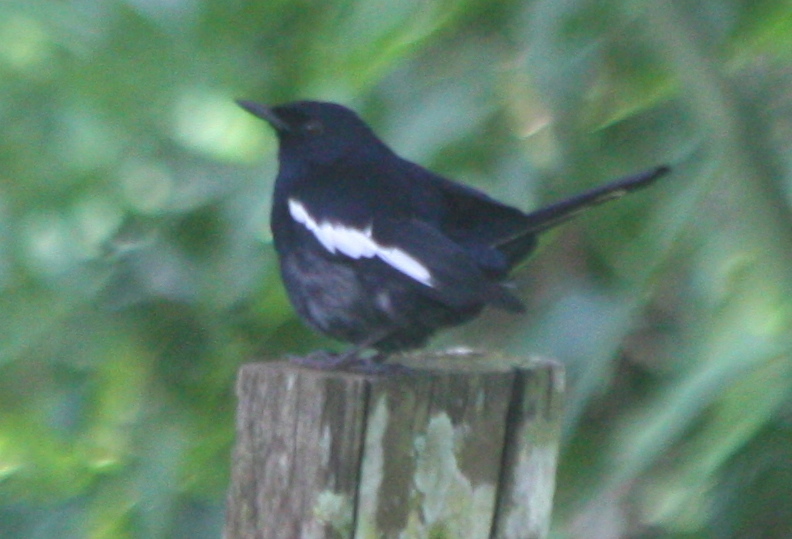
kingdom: Animalia
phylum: Chordata
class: Aves
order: Passeriformes
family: Muscicapidae
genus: Copsychus
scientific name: Copsychus saularis
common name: Oriental magpie-robin
